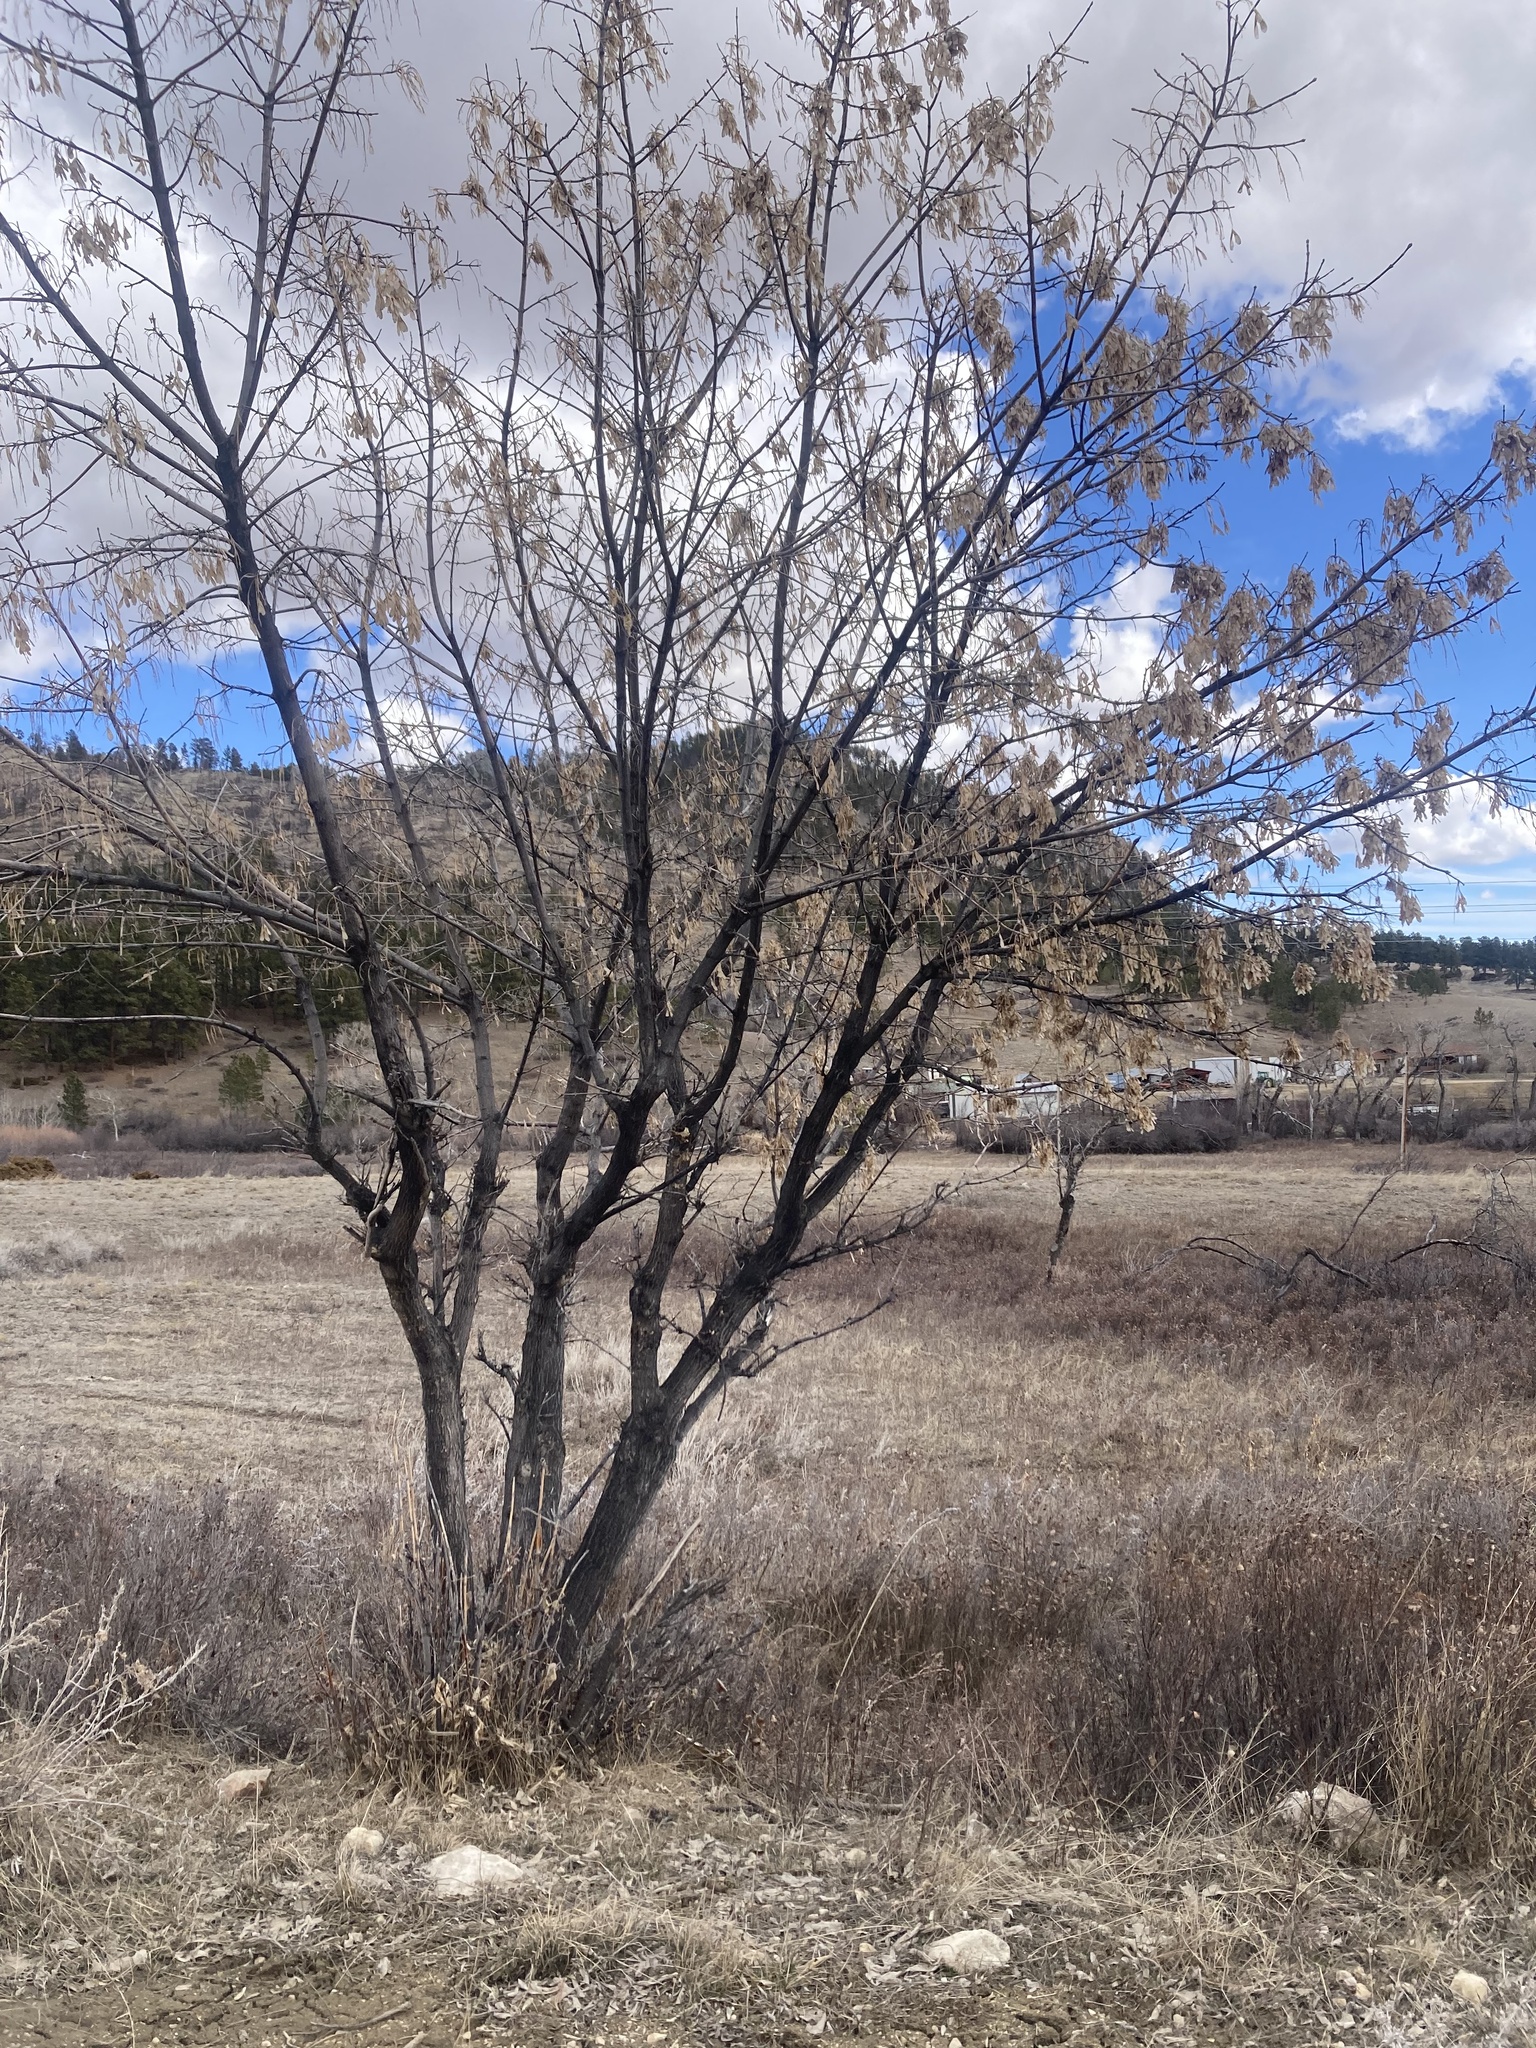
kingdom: Plantae
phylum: Tracheophyta
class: Magnoliopsida
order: Sapindales
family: Sapindaceae
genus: Acer
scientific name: Acer negundo
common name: Ashleaf maple
